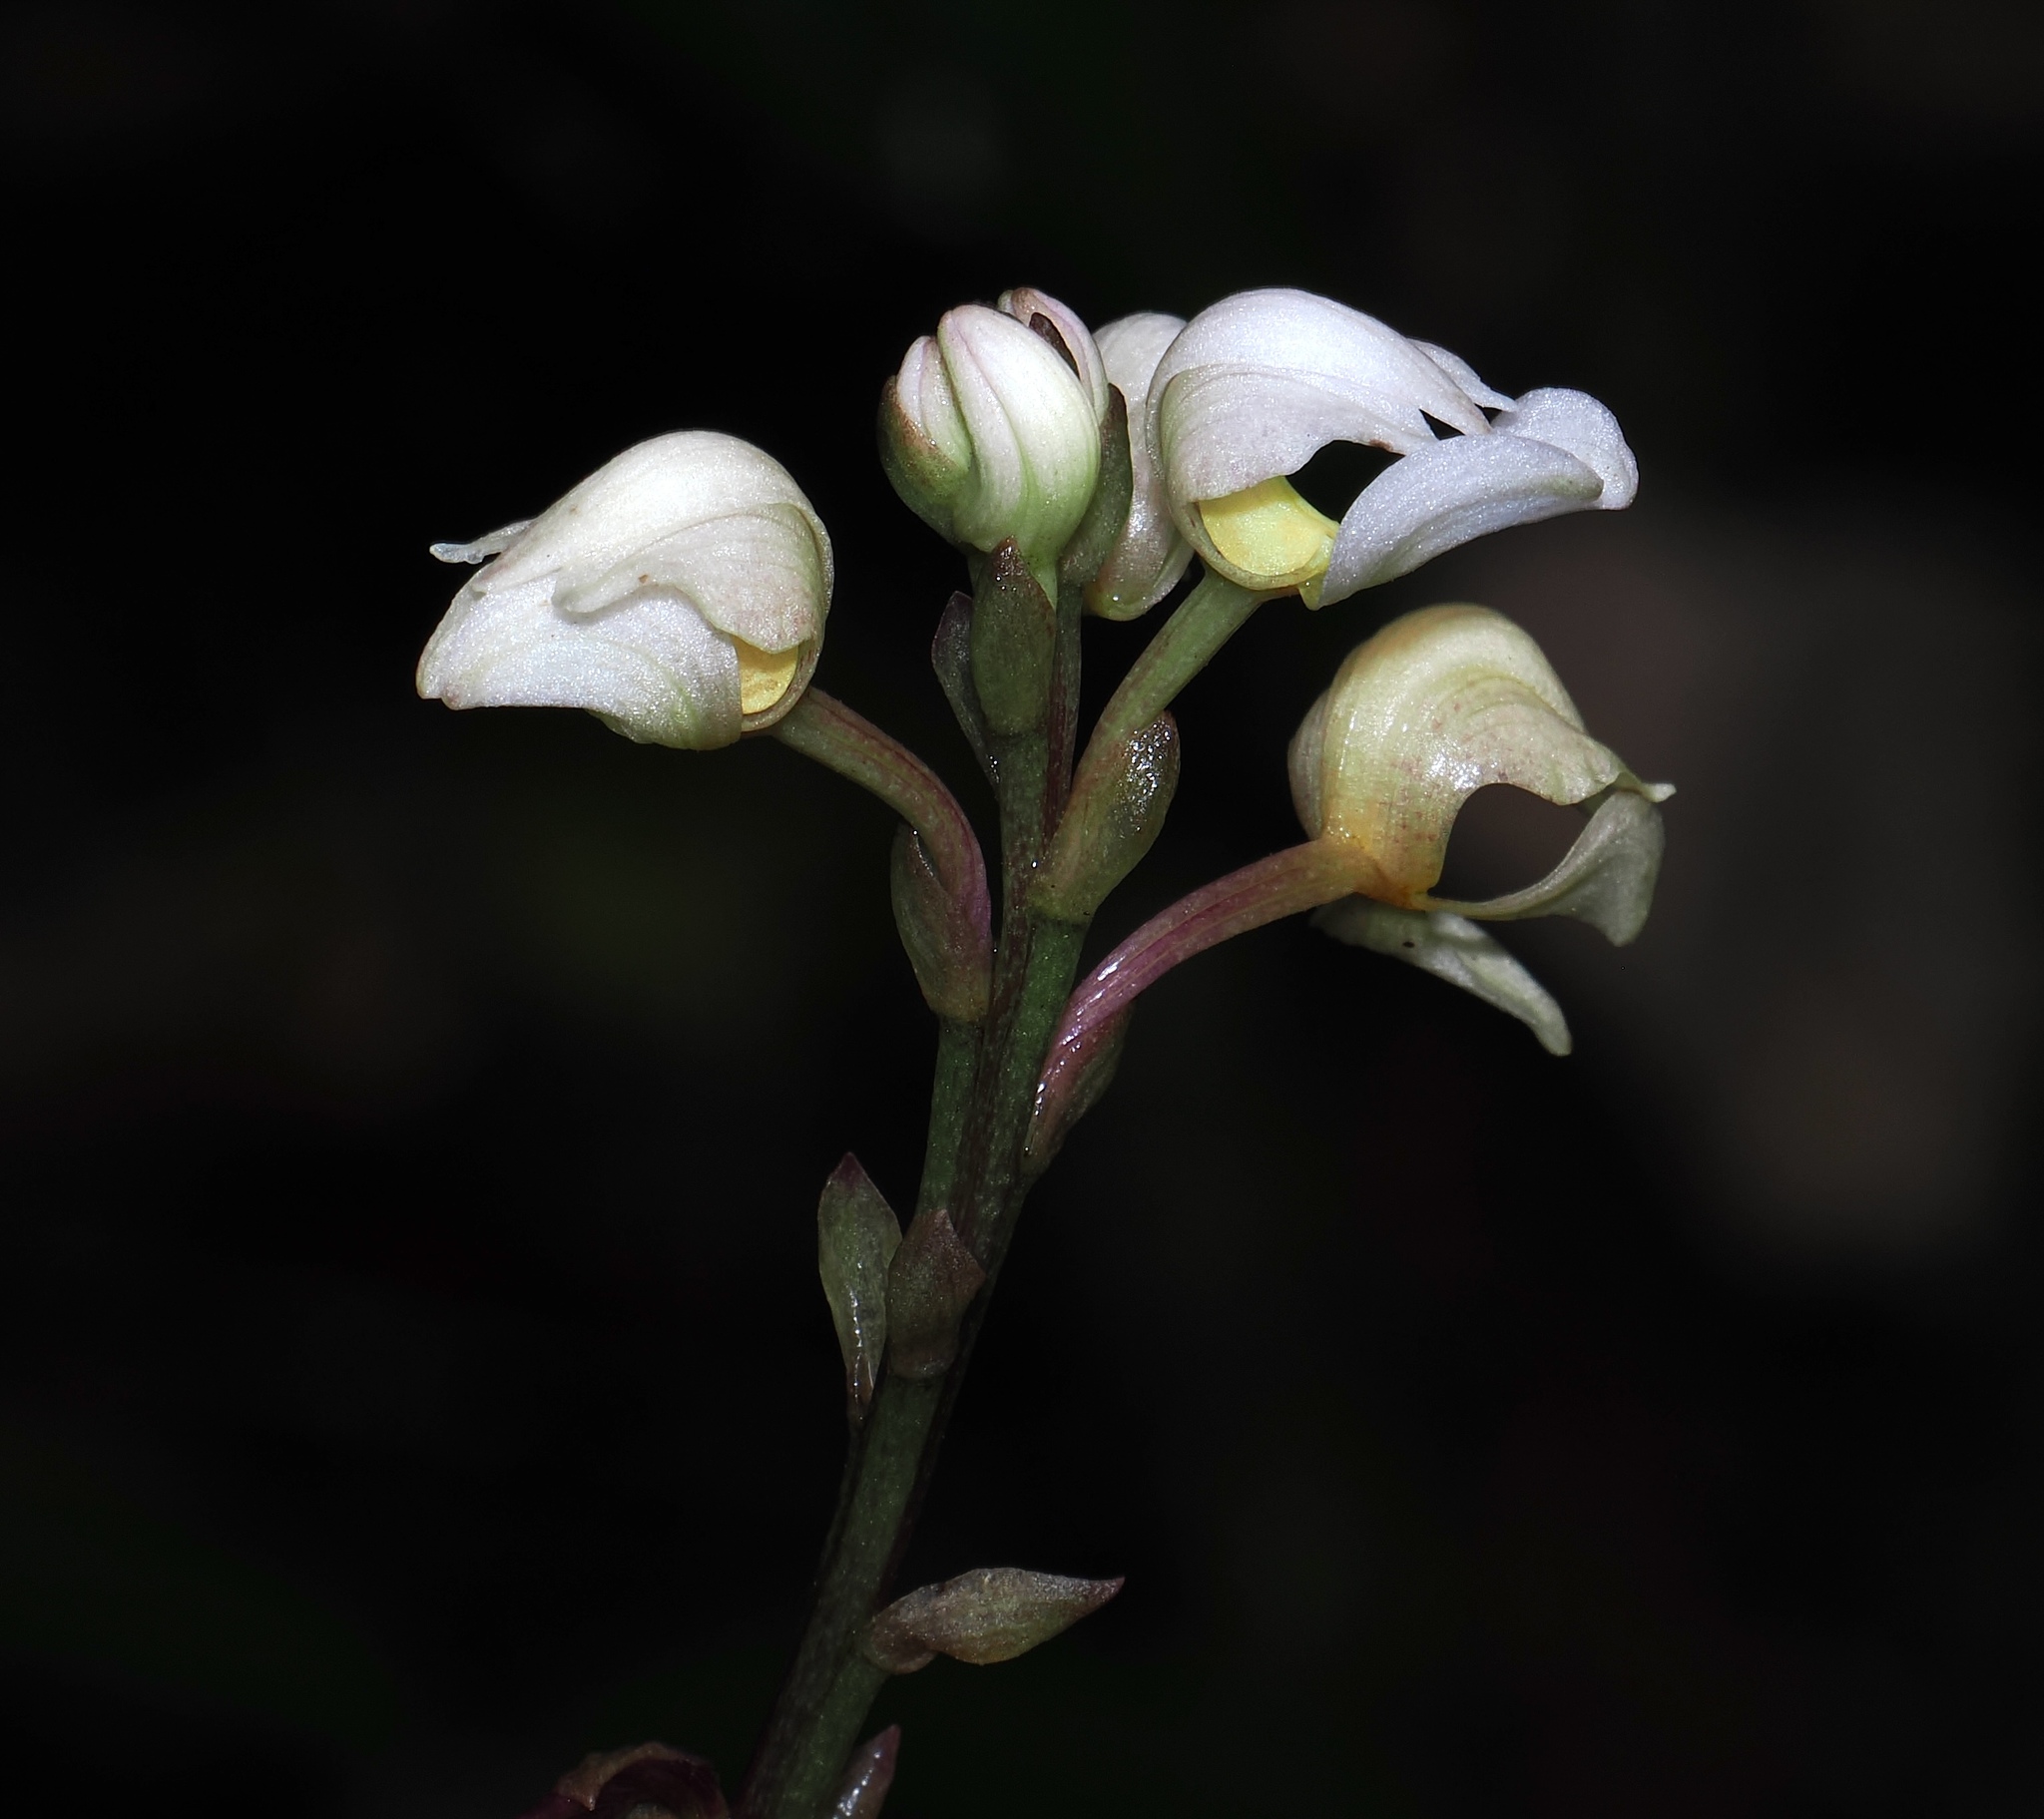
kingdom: Plantae
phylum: Tracheophyta
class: Liliopsida
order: Asparagales
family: Orchidaceae
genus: Govenia
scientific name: Govenia utriculata
